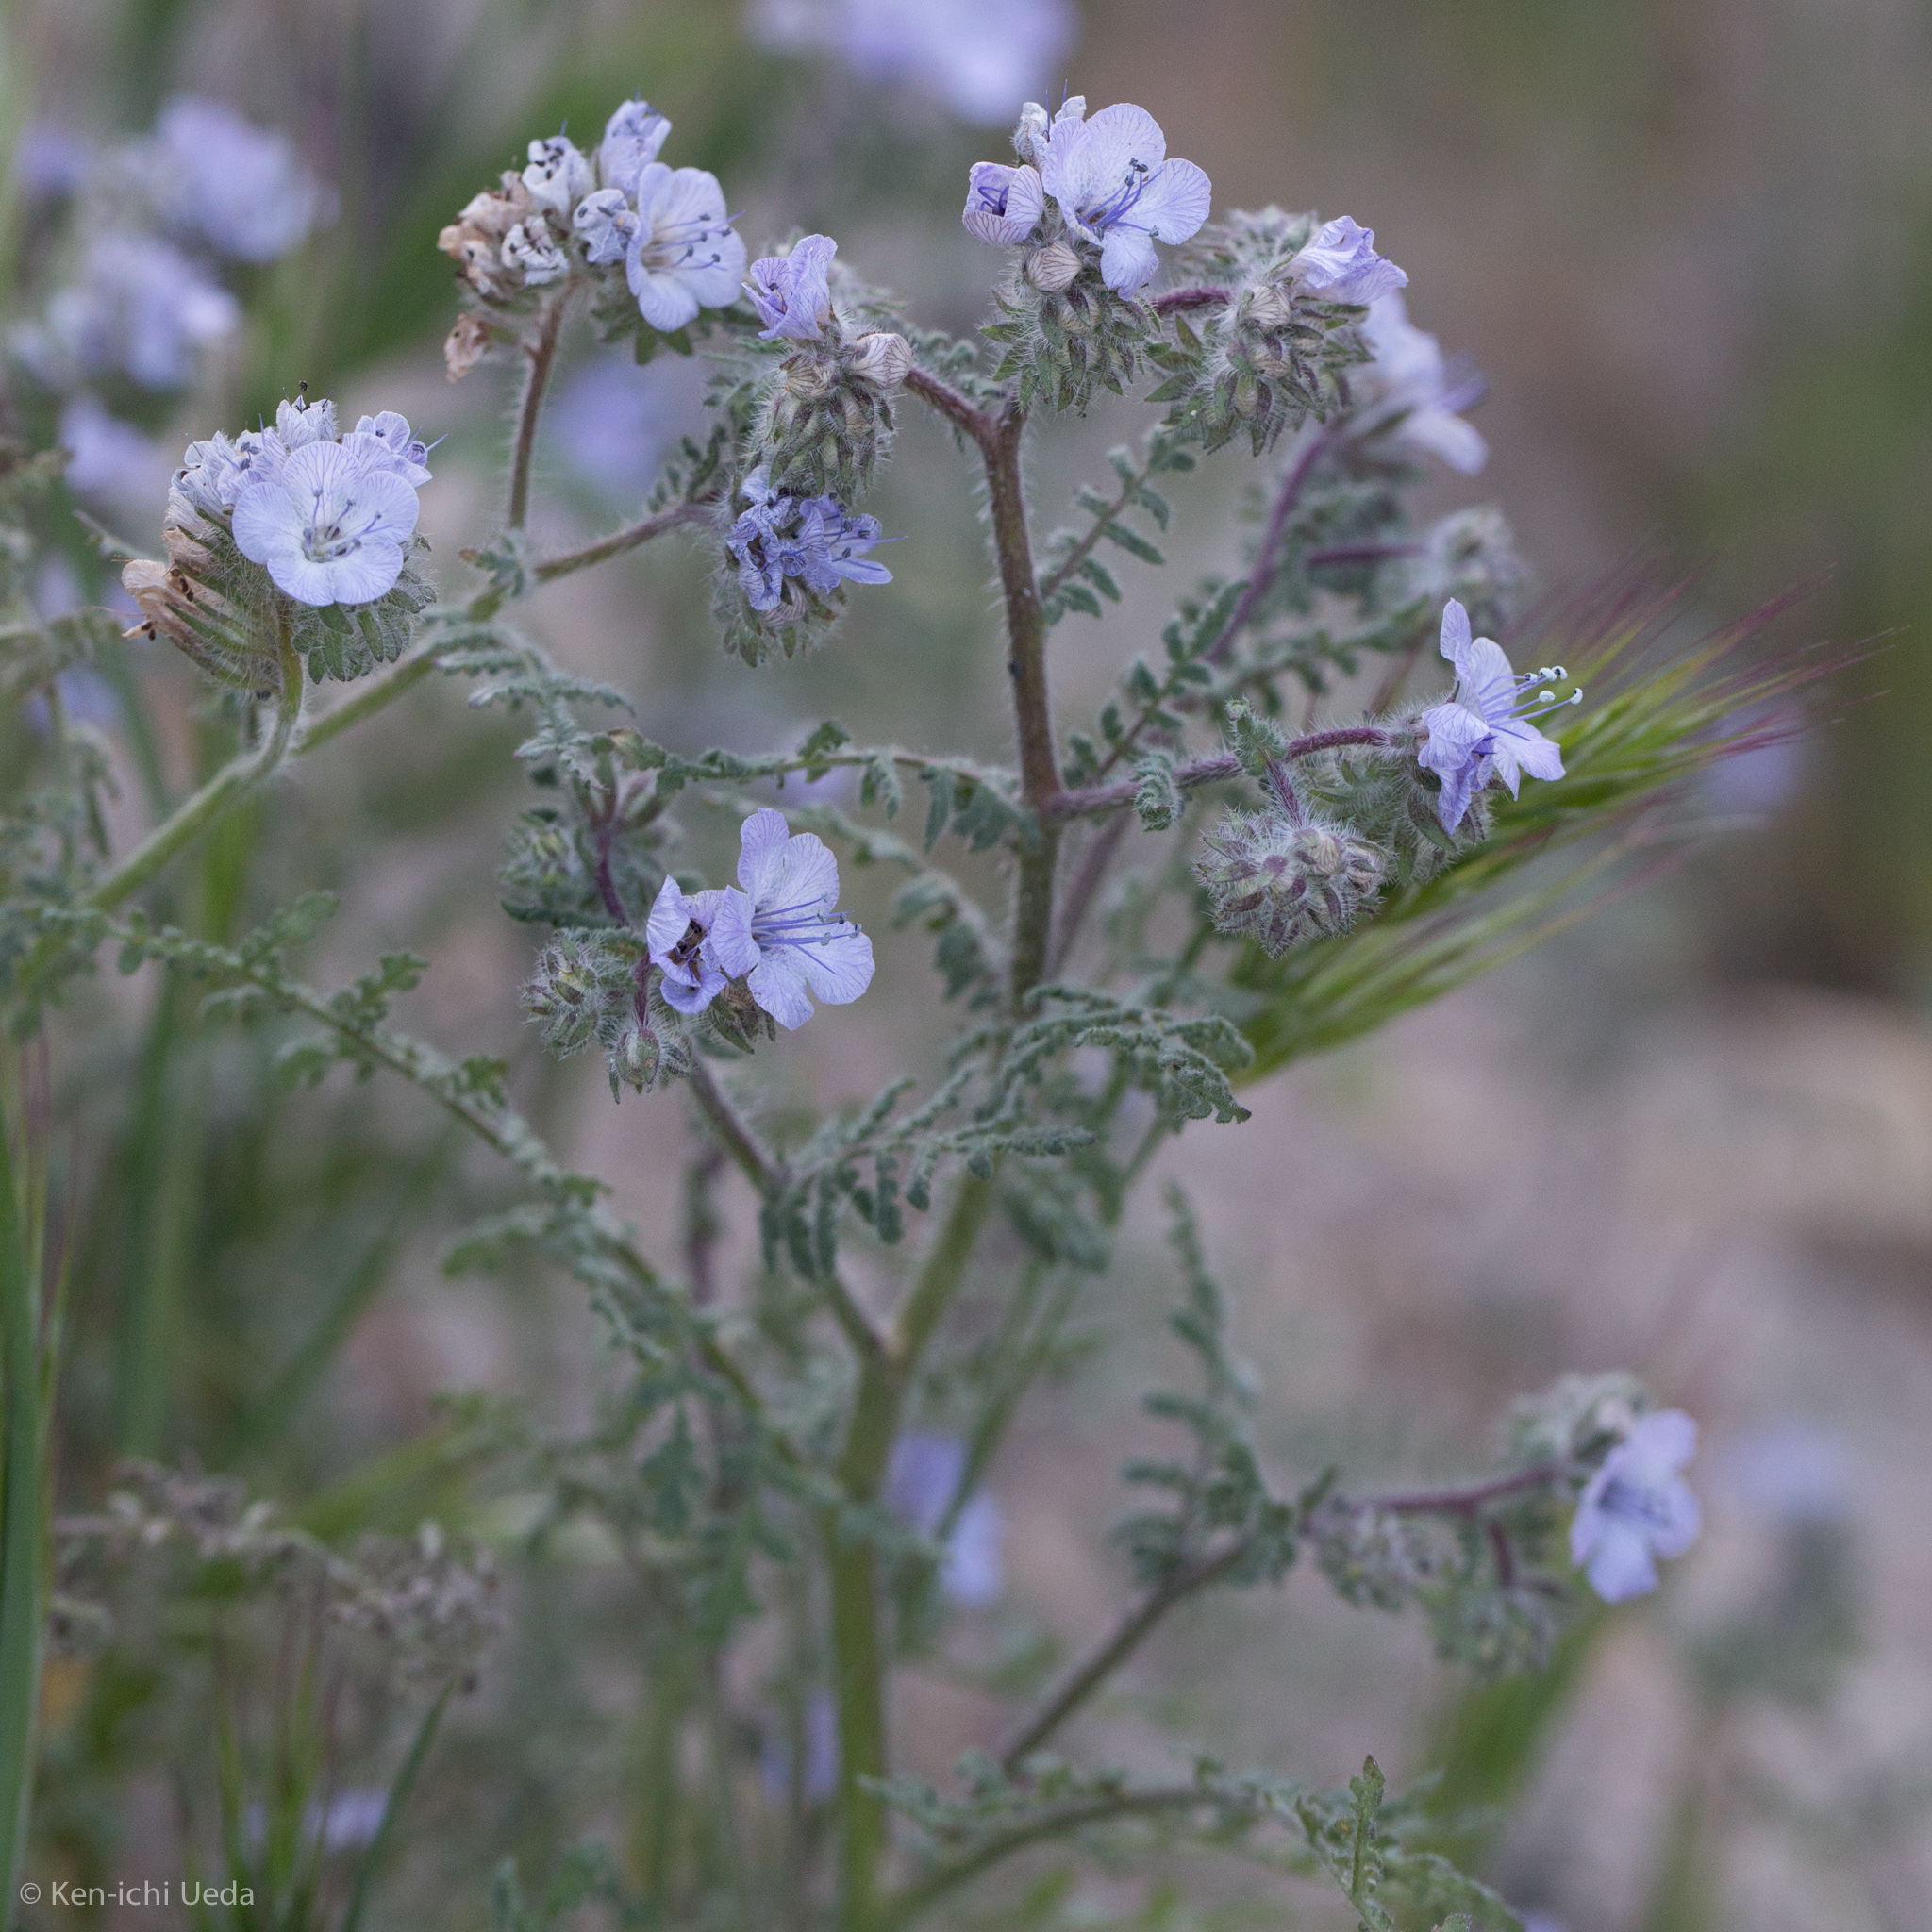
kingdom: Plantae
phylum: Tracheophyta
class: Magnoliopsida
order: Boraginales
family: Hydrophyllaceae
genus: Phacelia
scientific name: Phacelia distans
